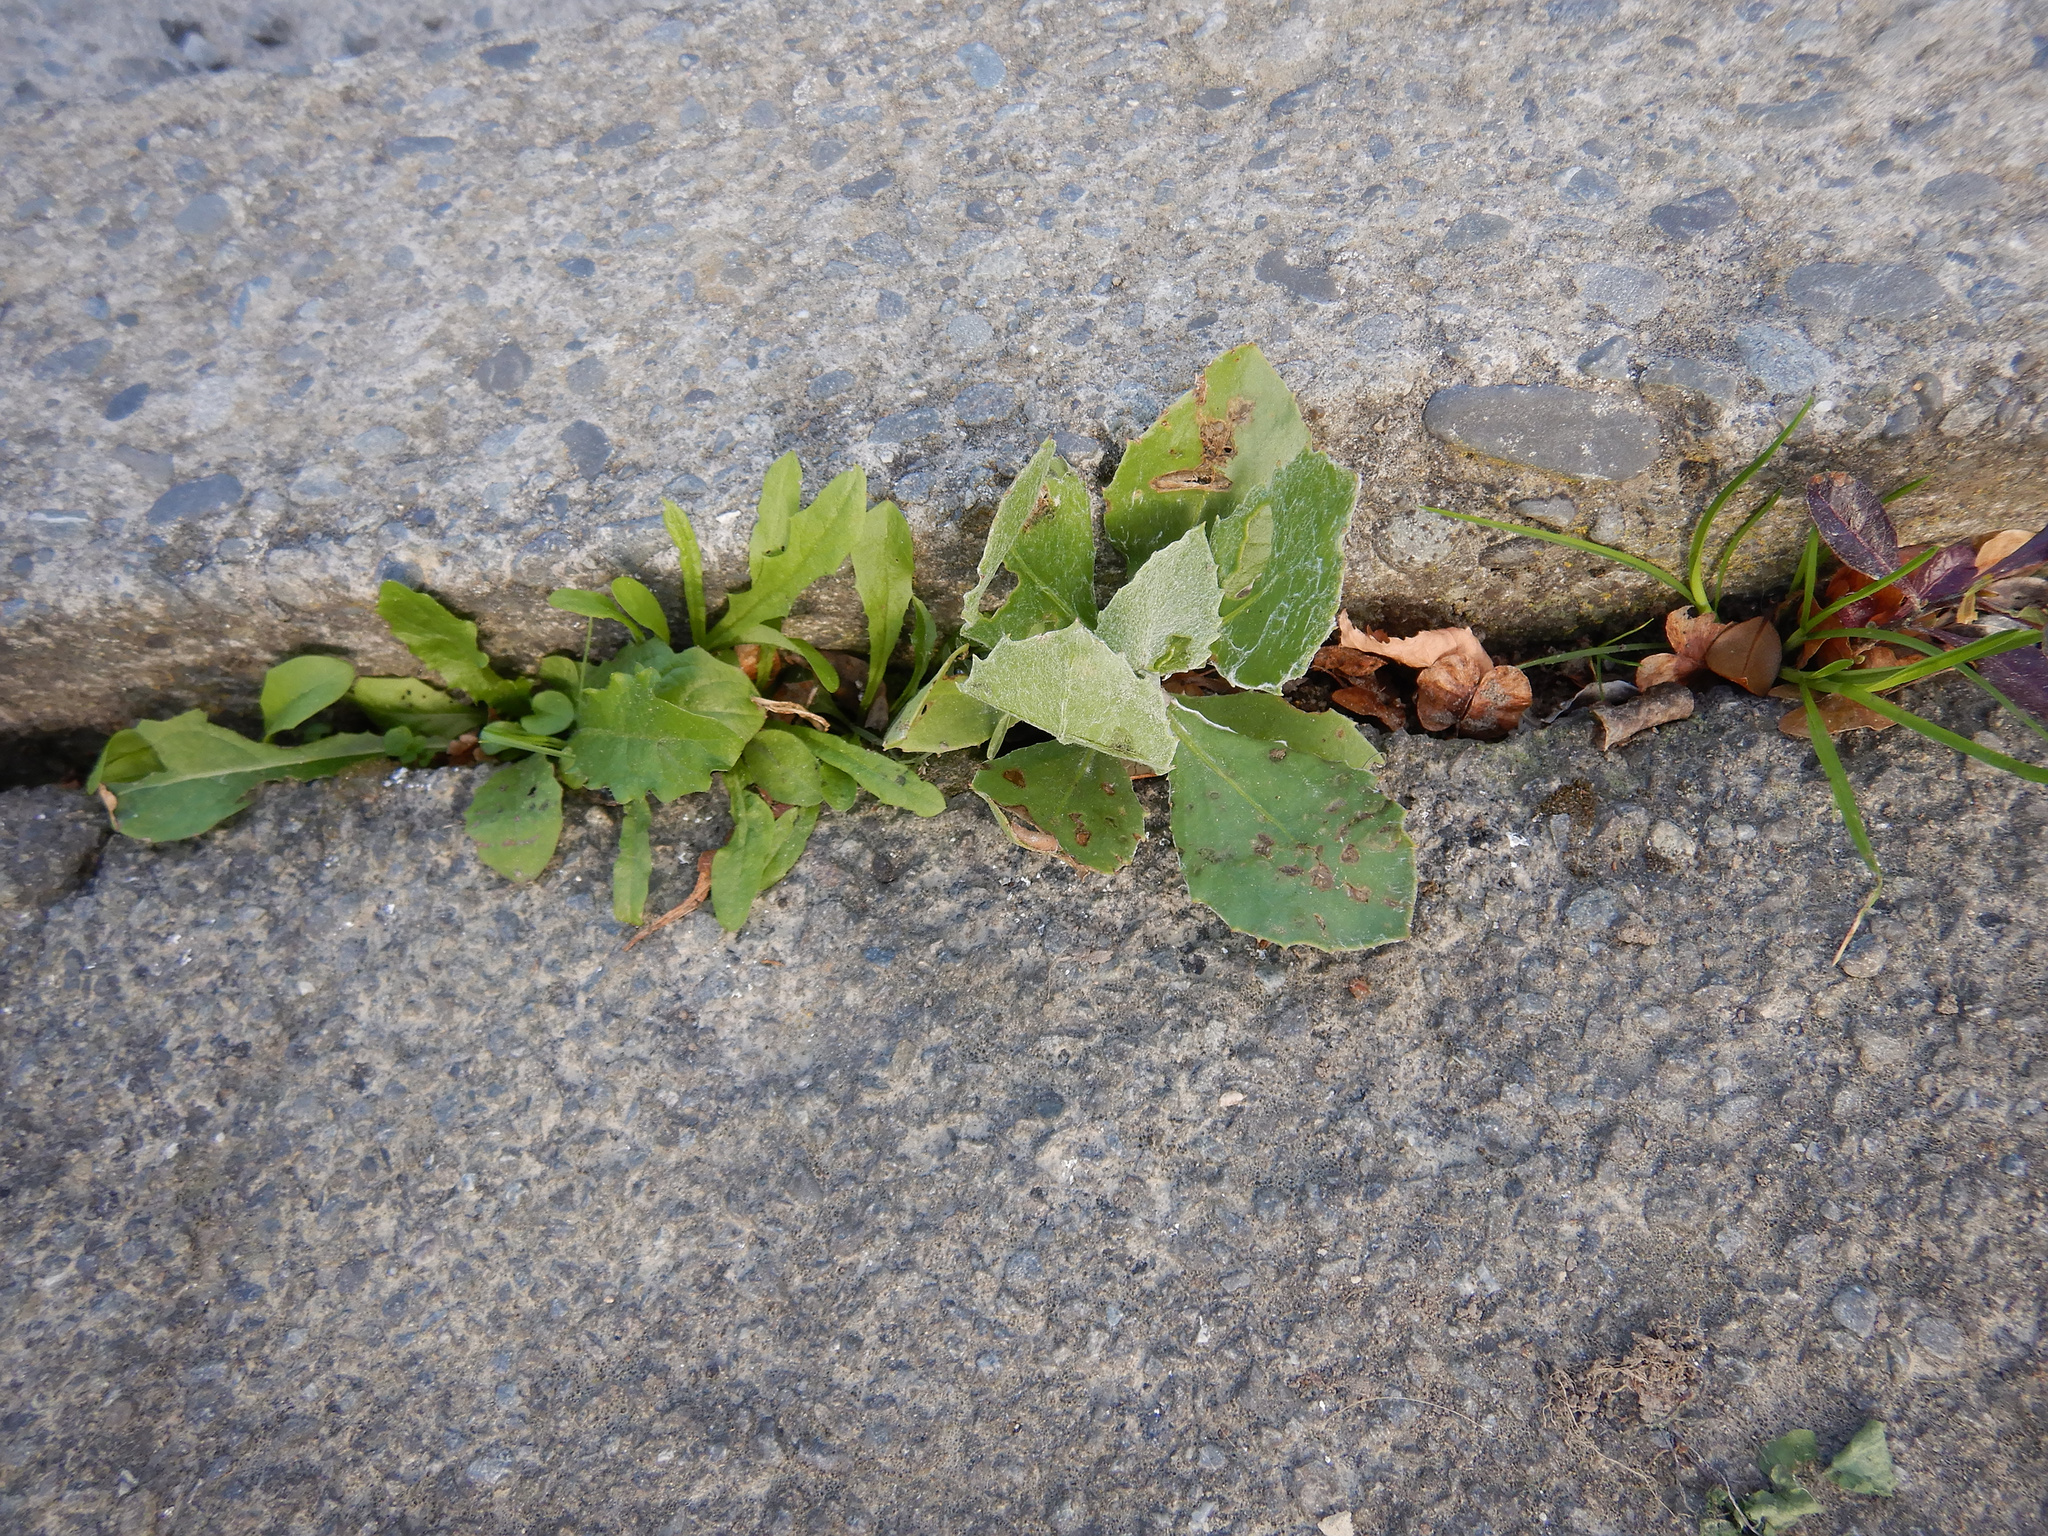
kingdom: Plantae
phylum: Tracheophyta
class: Magnoliopsida
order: Asterales
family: Asteraceae
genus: Osteospermum
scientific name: Osteospermum moniliferum
